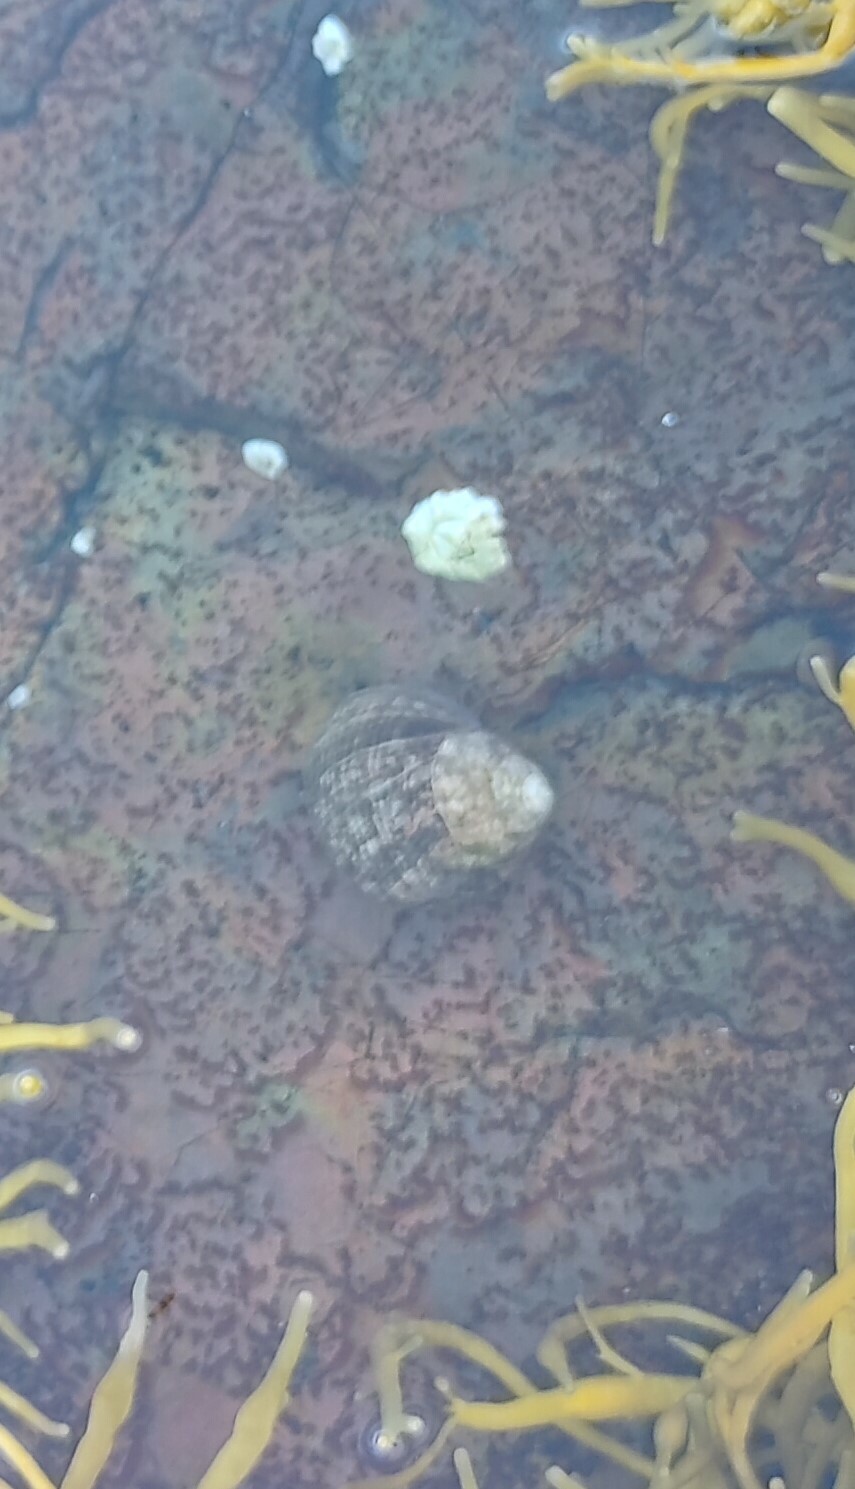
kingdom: Animalia
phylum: Mollusca
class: Gastropoda
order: Littorinimorpha
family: Littorinidae
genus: Littorina
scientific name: Littorina littorea
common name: Common periwinkle
